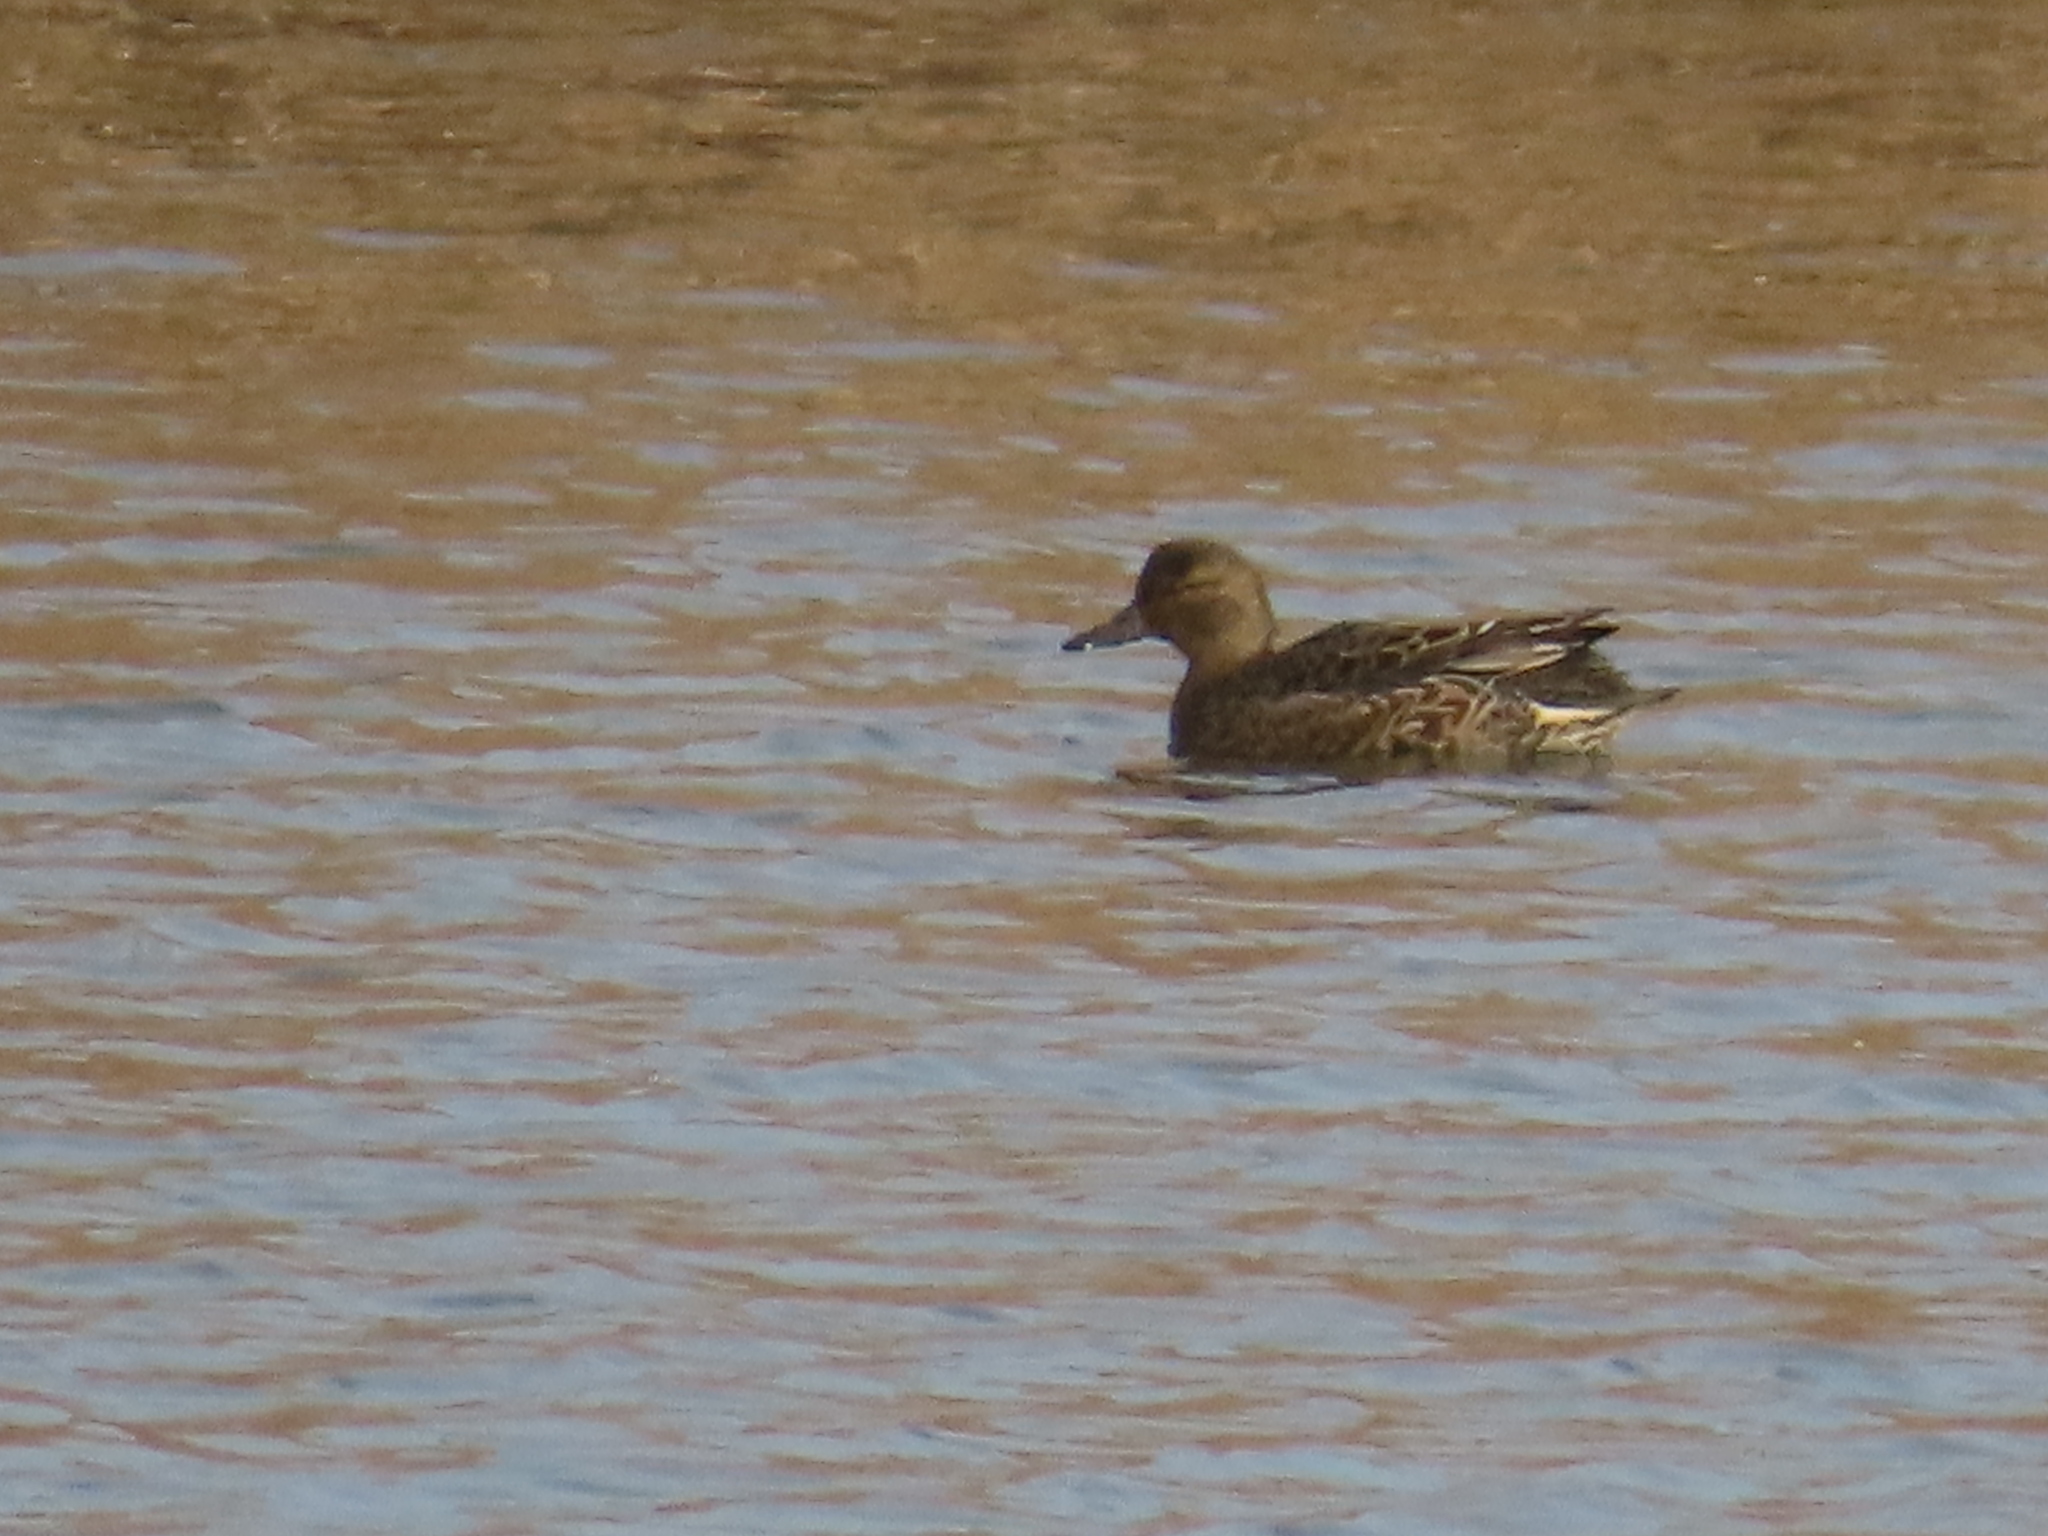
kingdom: Animalia
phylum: Chordata
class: Aves
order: Anseriformes
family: Anatidae
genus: Anas
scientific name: Anas crecca
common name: Eurasian teal
